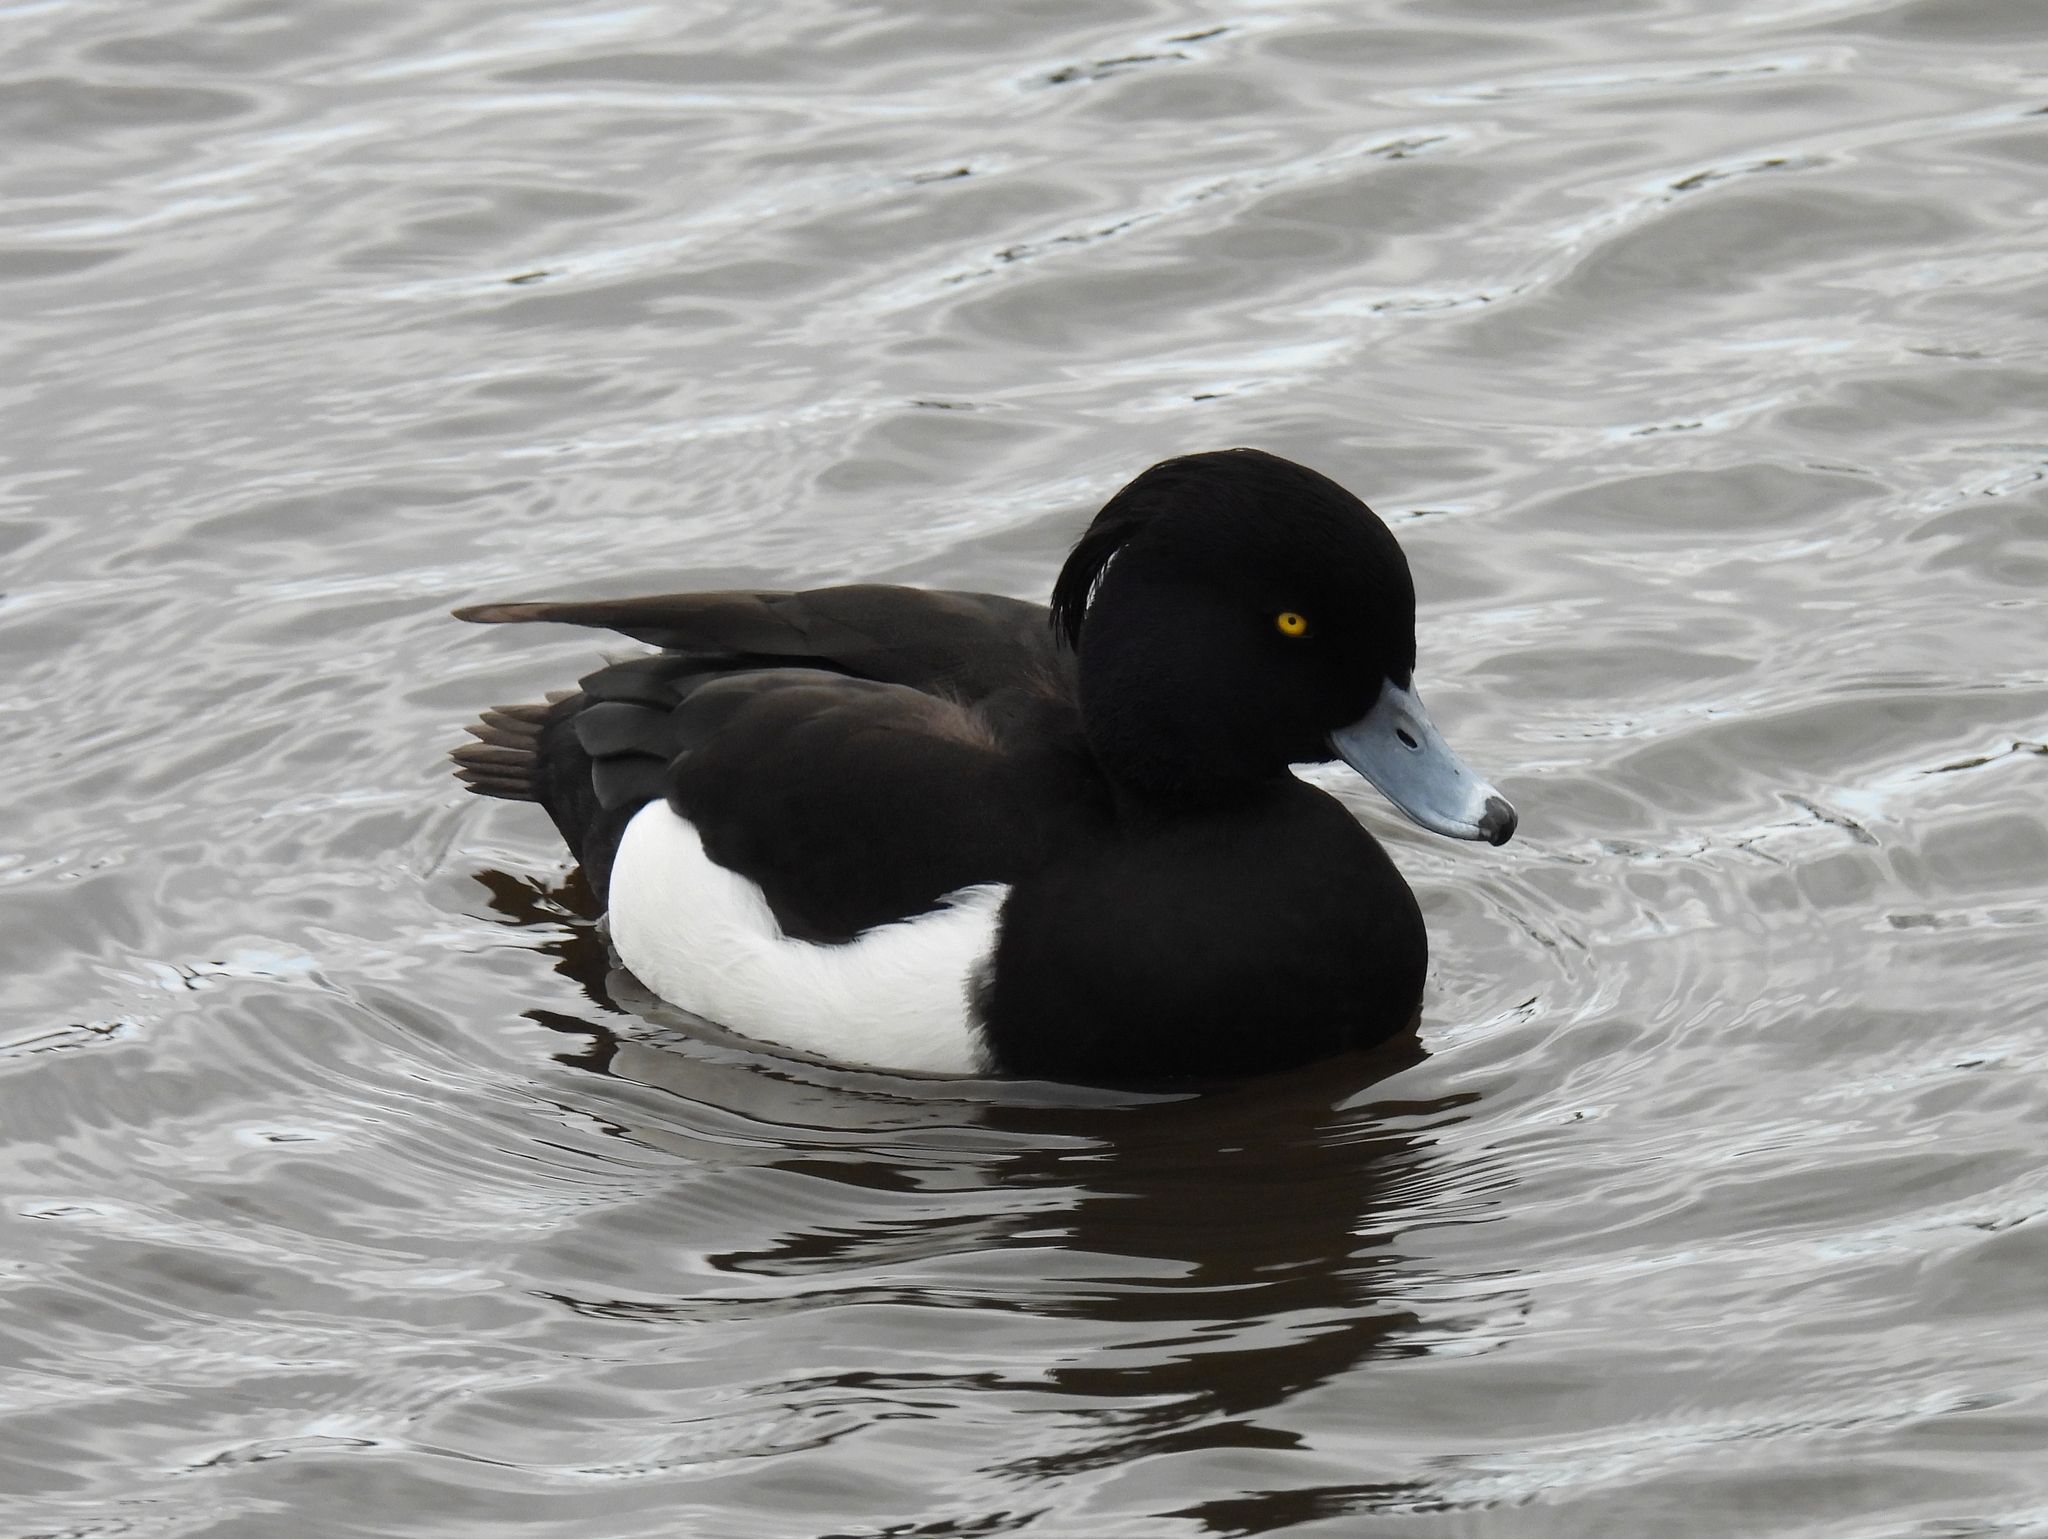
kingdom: Animalia
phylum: Chordata
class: Aves
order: Anseriformes
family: Anatidae
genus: Aythya
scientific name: Aythya fuligula
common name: Tufted duck
